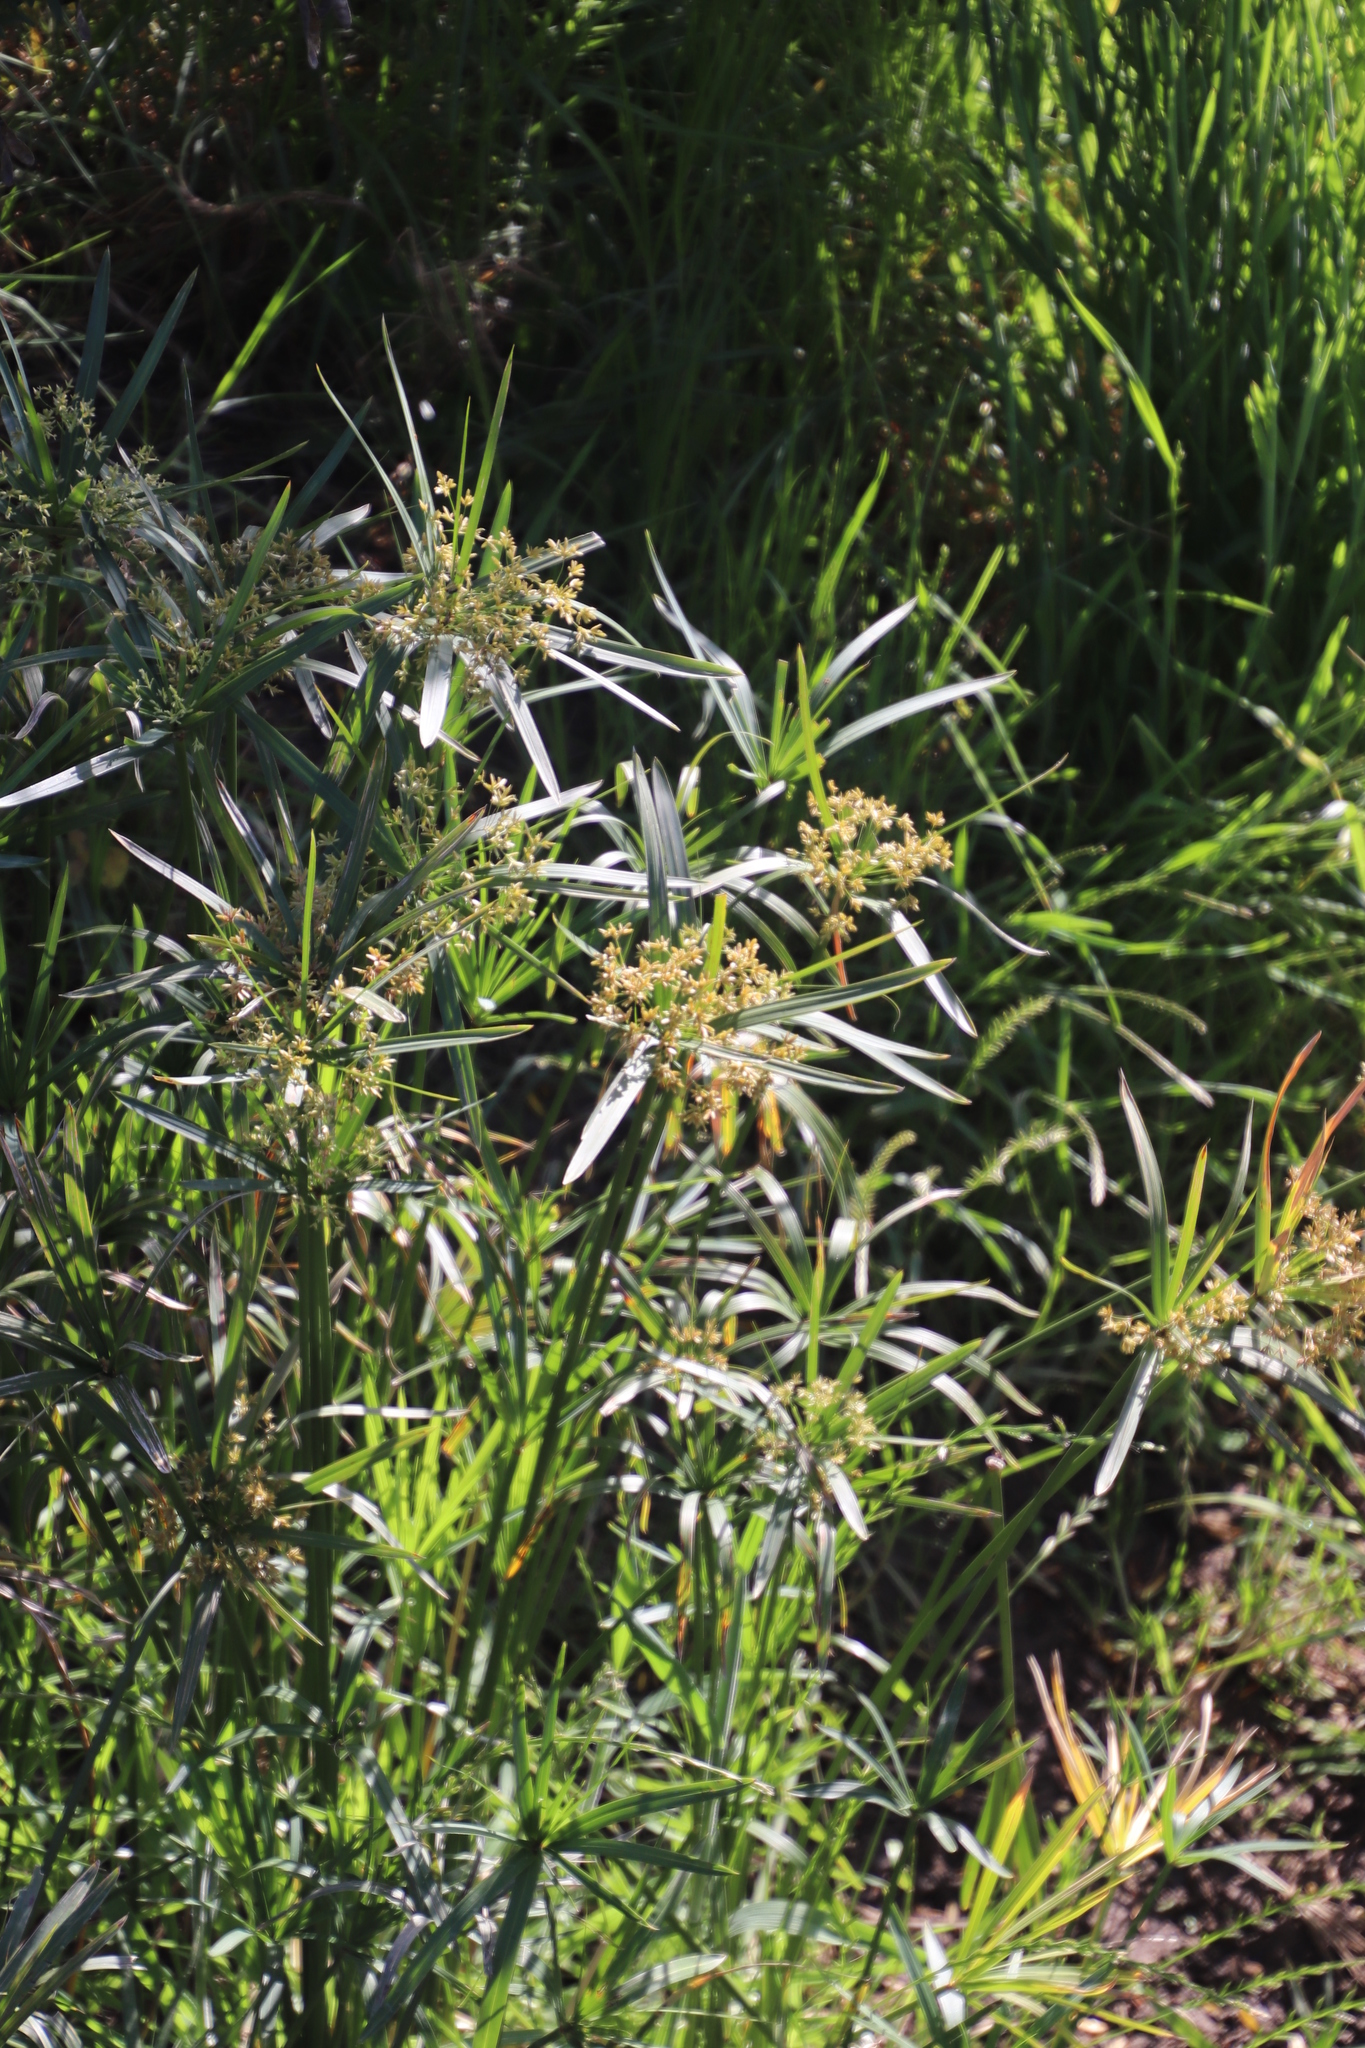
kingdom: Plantae
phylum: Tracheophyta
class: Liliopsida
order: Poales
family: Cyperaceae
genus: Cyperus
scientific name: Cyperus textilis
